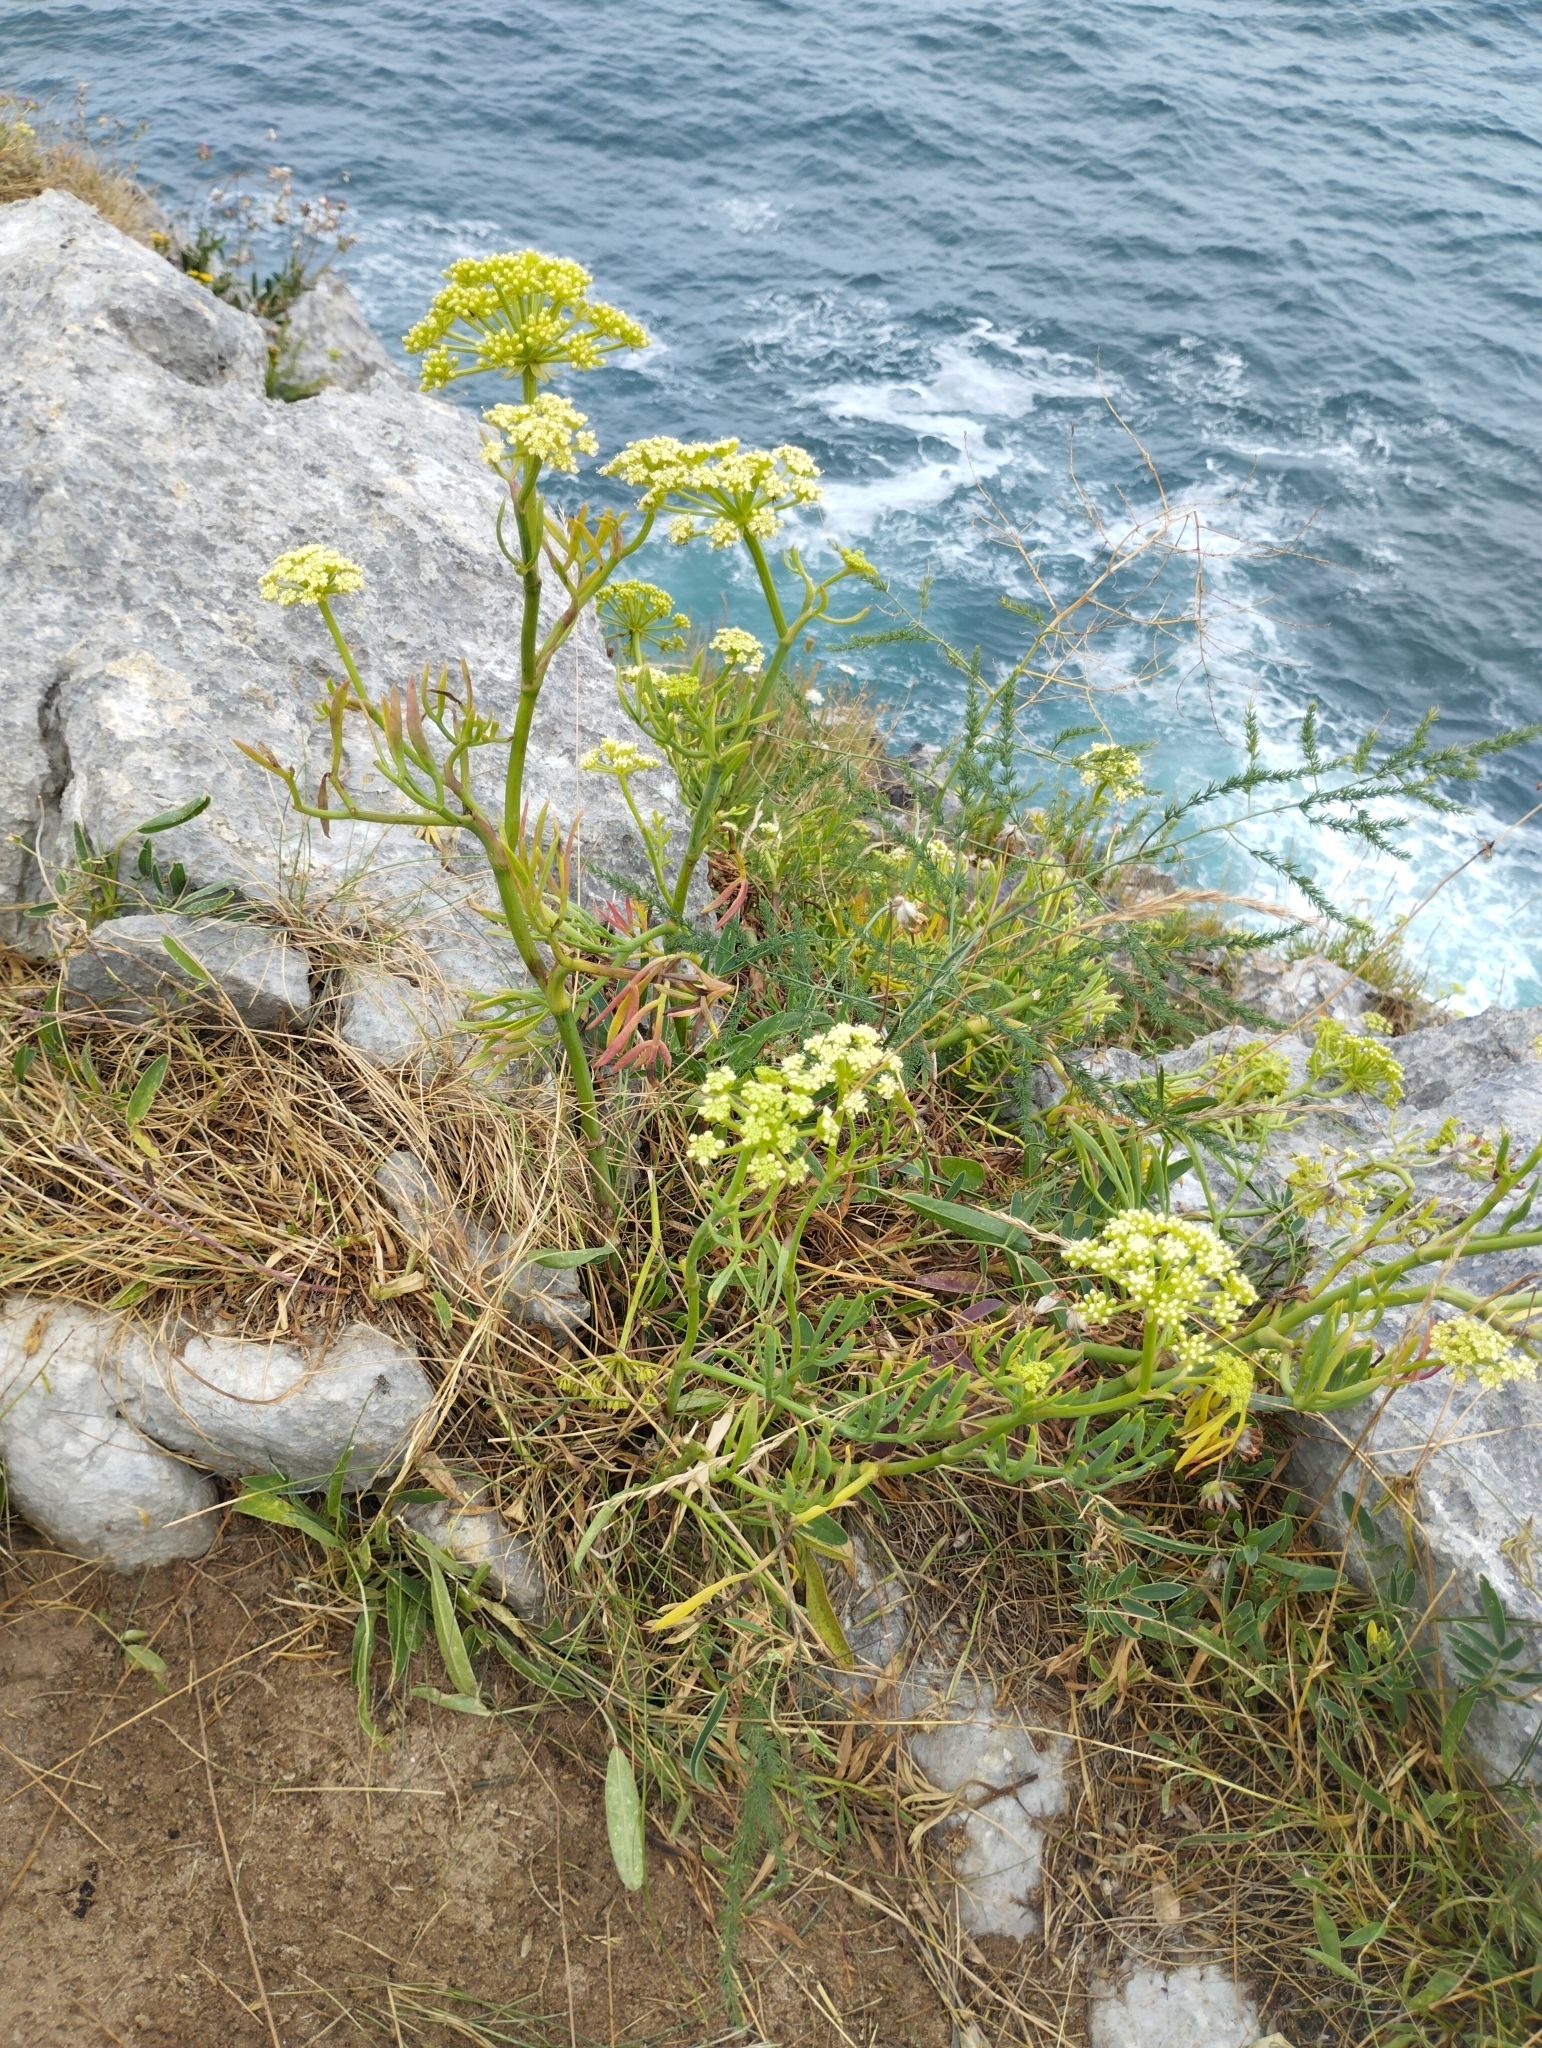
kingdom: Plantae
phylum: Tracheophyta
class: Magnoliopsida
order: Apiales
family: Apiaceae
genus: Crithmum
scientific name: Crithmum maritimum
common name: Rock samphire
